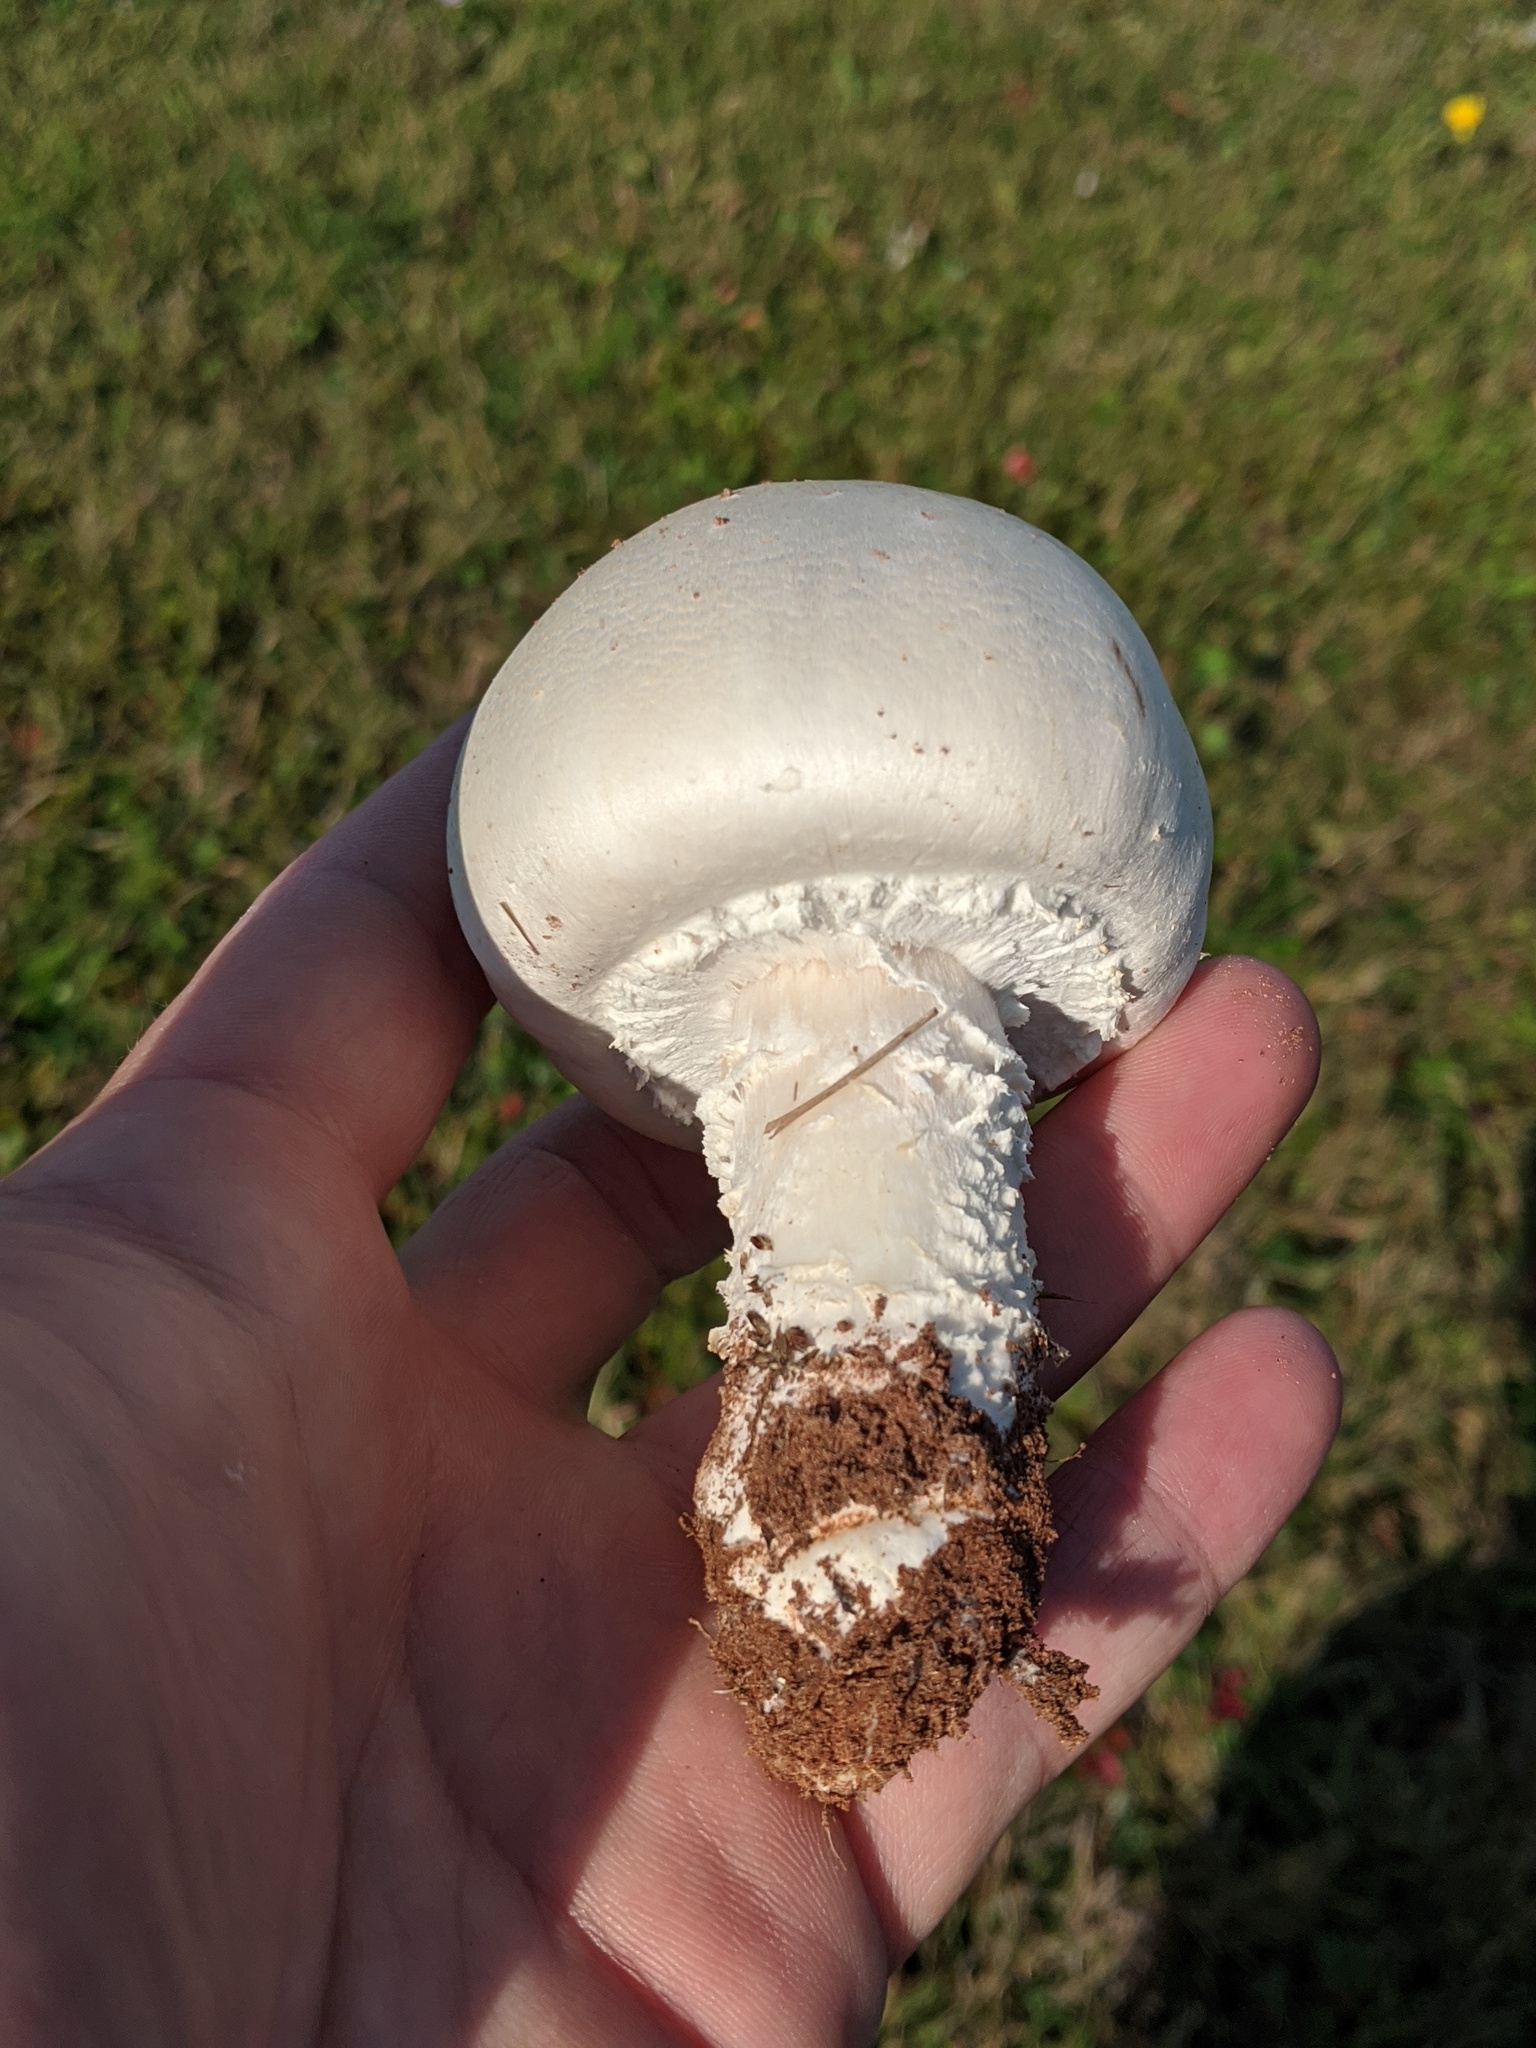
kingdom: Fungi
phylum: Basidiomycota
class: Agaricomycetes
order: Agaricales
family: Agaricaceae
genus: Agaricus
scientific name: Agaricus campestris
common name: Field mushroom
